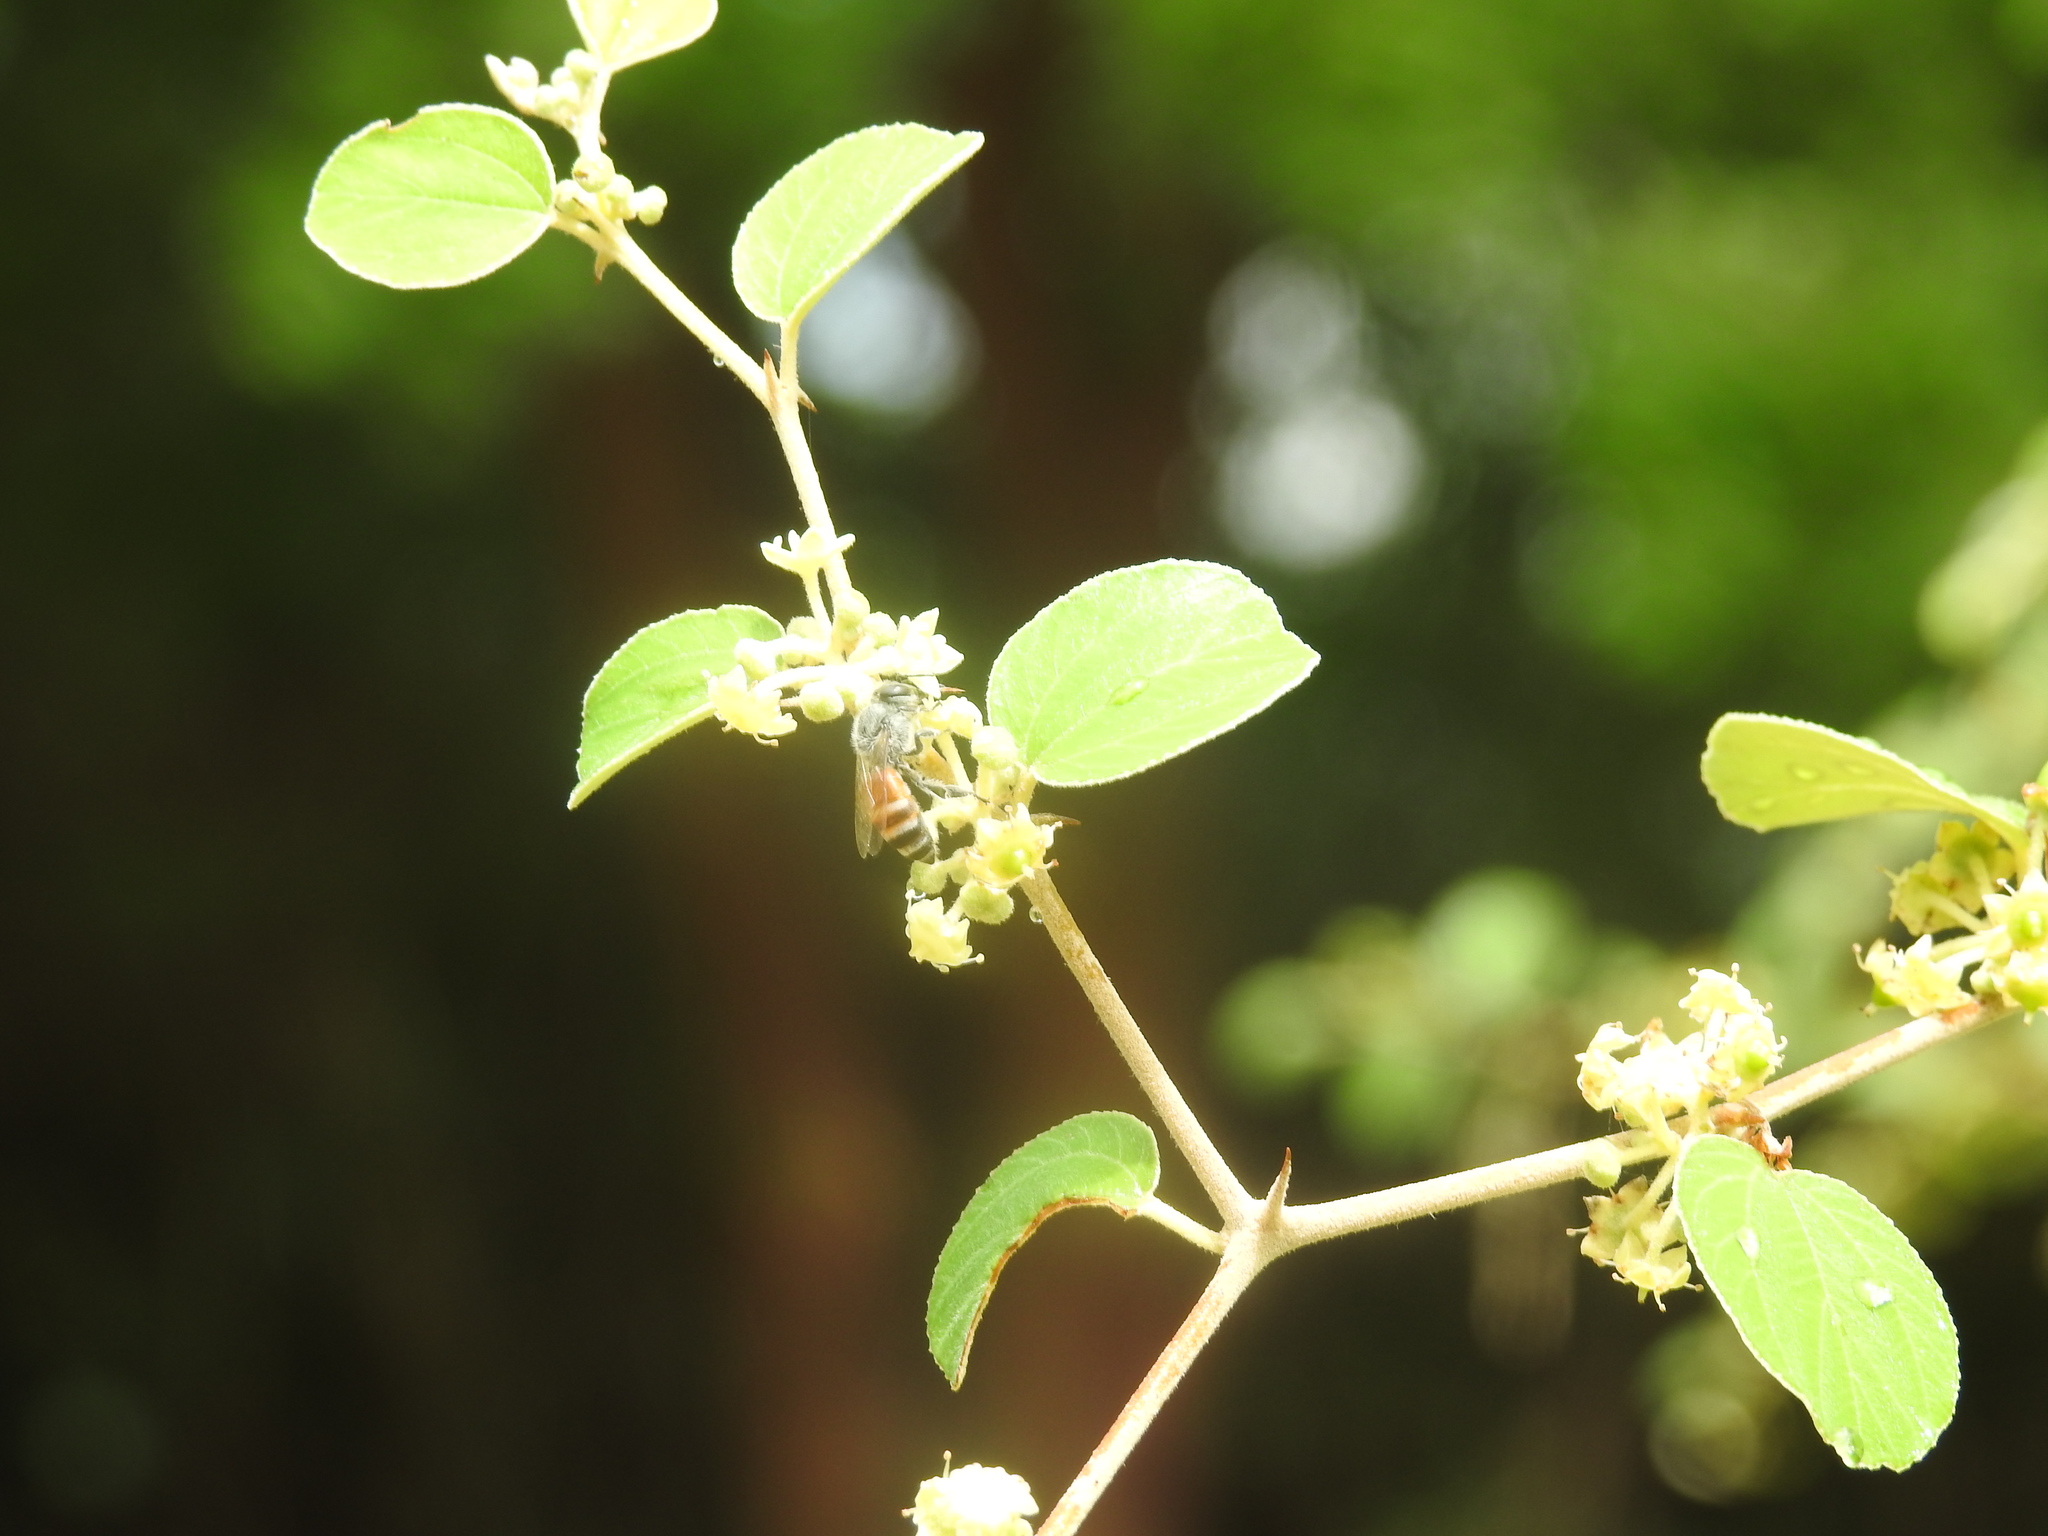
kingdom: Animalia
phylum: Arthropoda
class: Insecta
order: Hymenoptera
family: Apidae
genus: Apis
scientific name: Apis florea
